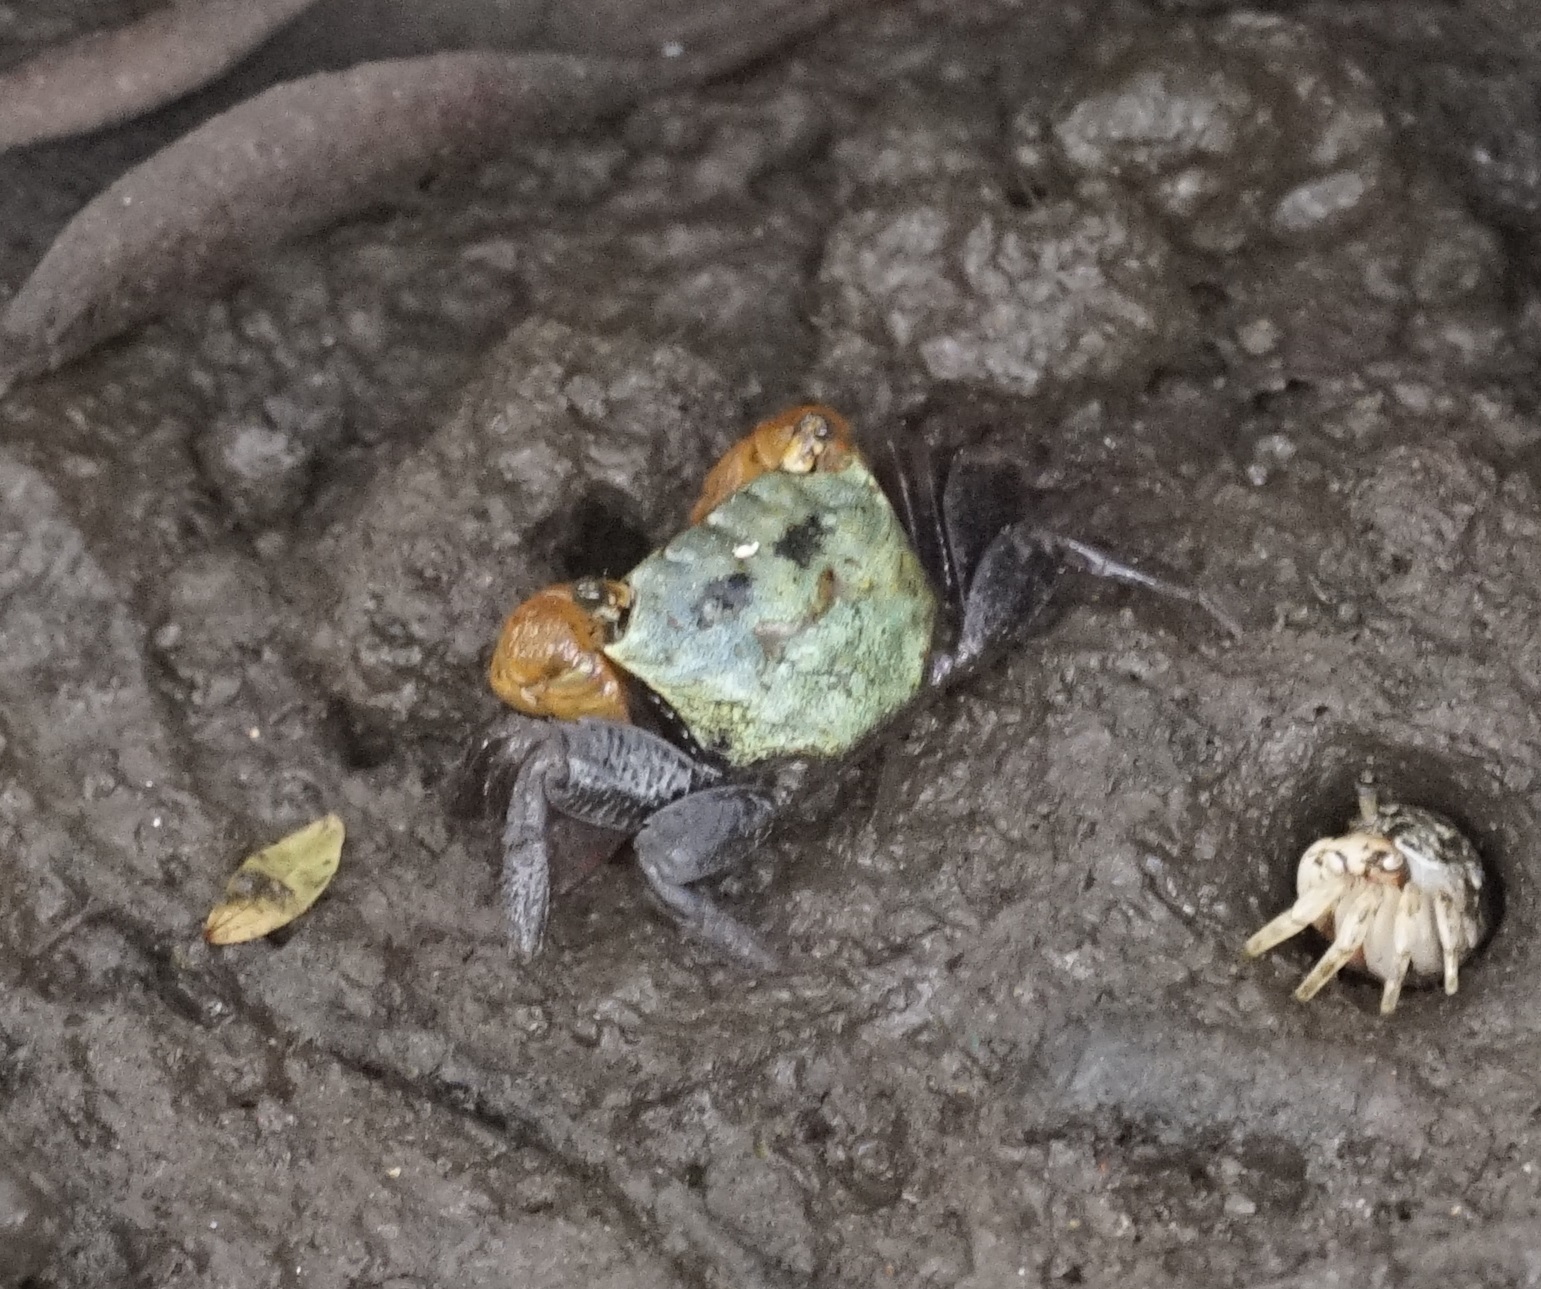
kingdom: Animalia
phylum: Arthropoda
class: Malacostraca
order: Decapoda
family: Sesarmidae
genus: Parasesarma
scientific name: Parasesarma erythodactylum
